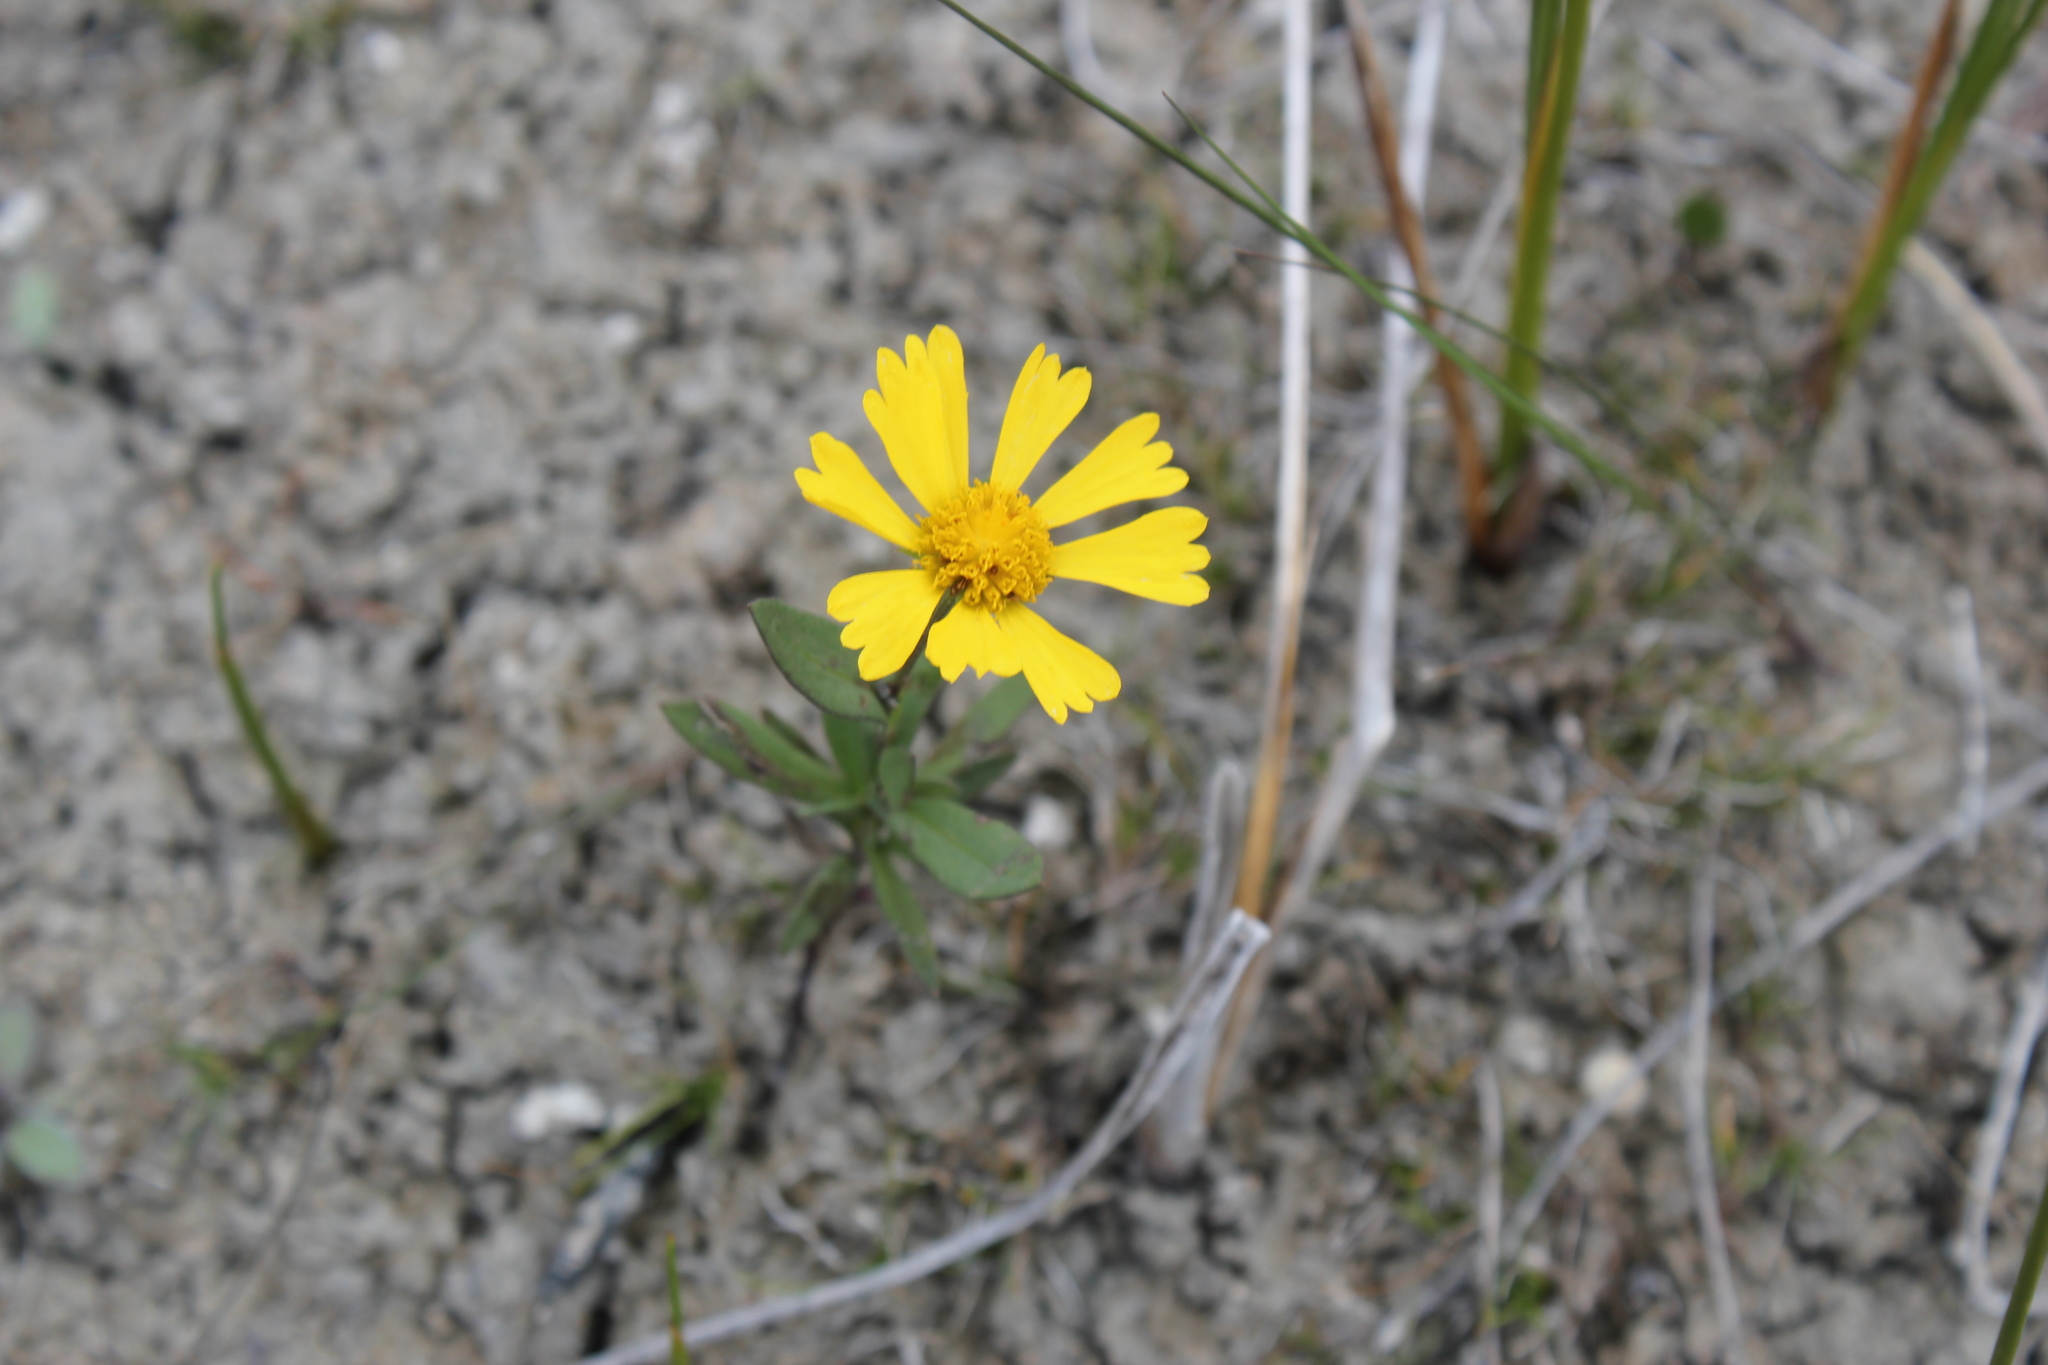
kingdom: Plantae
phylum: Tracheophyta
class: Magnoliopsida
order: Asterales
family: Asteraceae
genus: Helenium
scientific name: Helenium autumnale
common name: Sneezeweed
